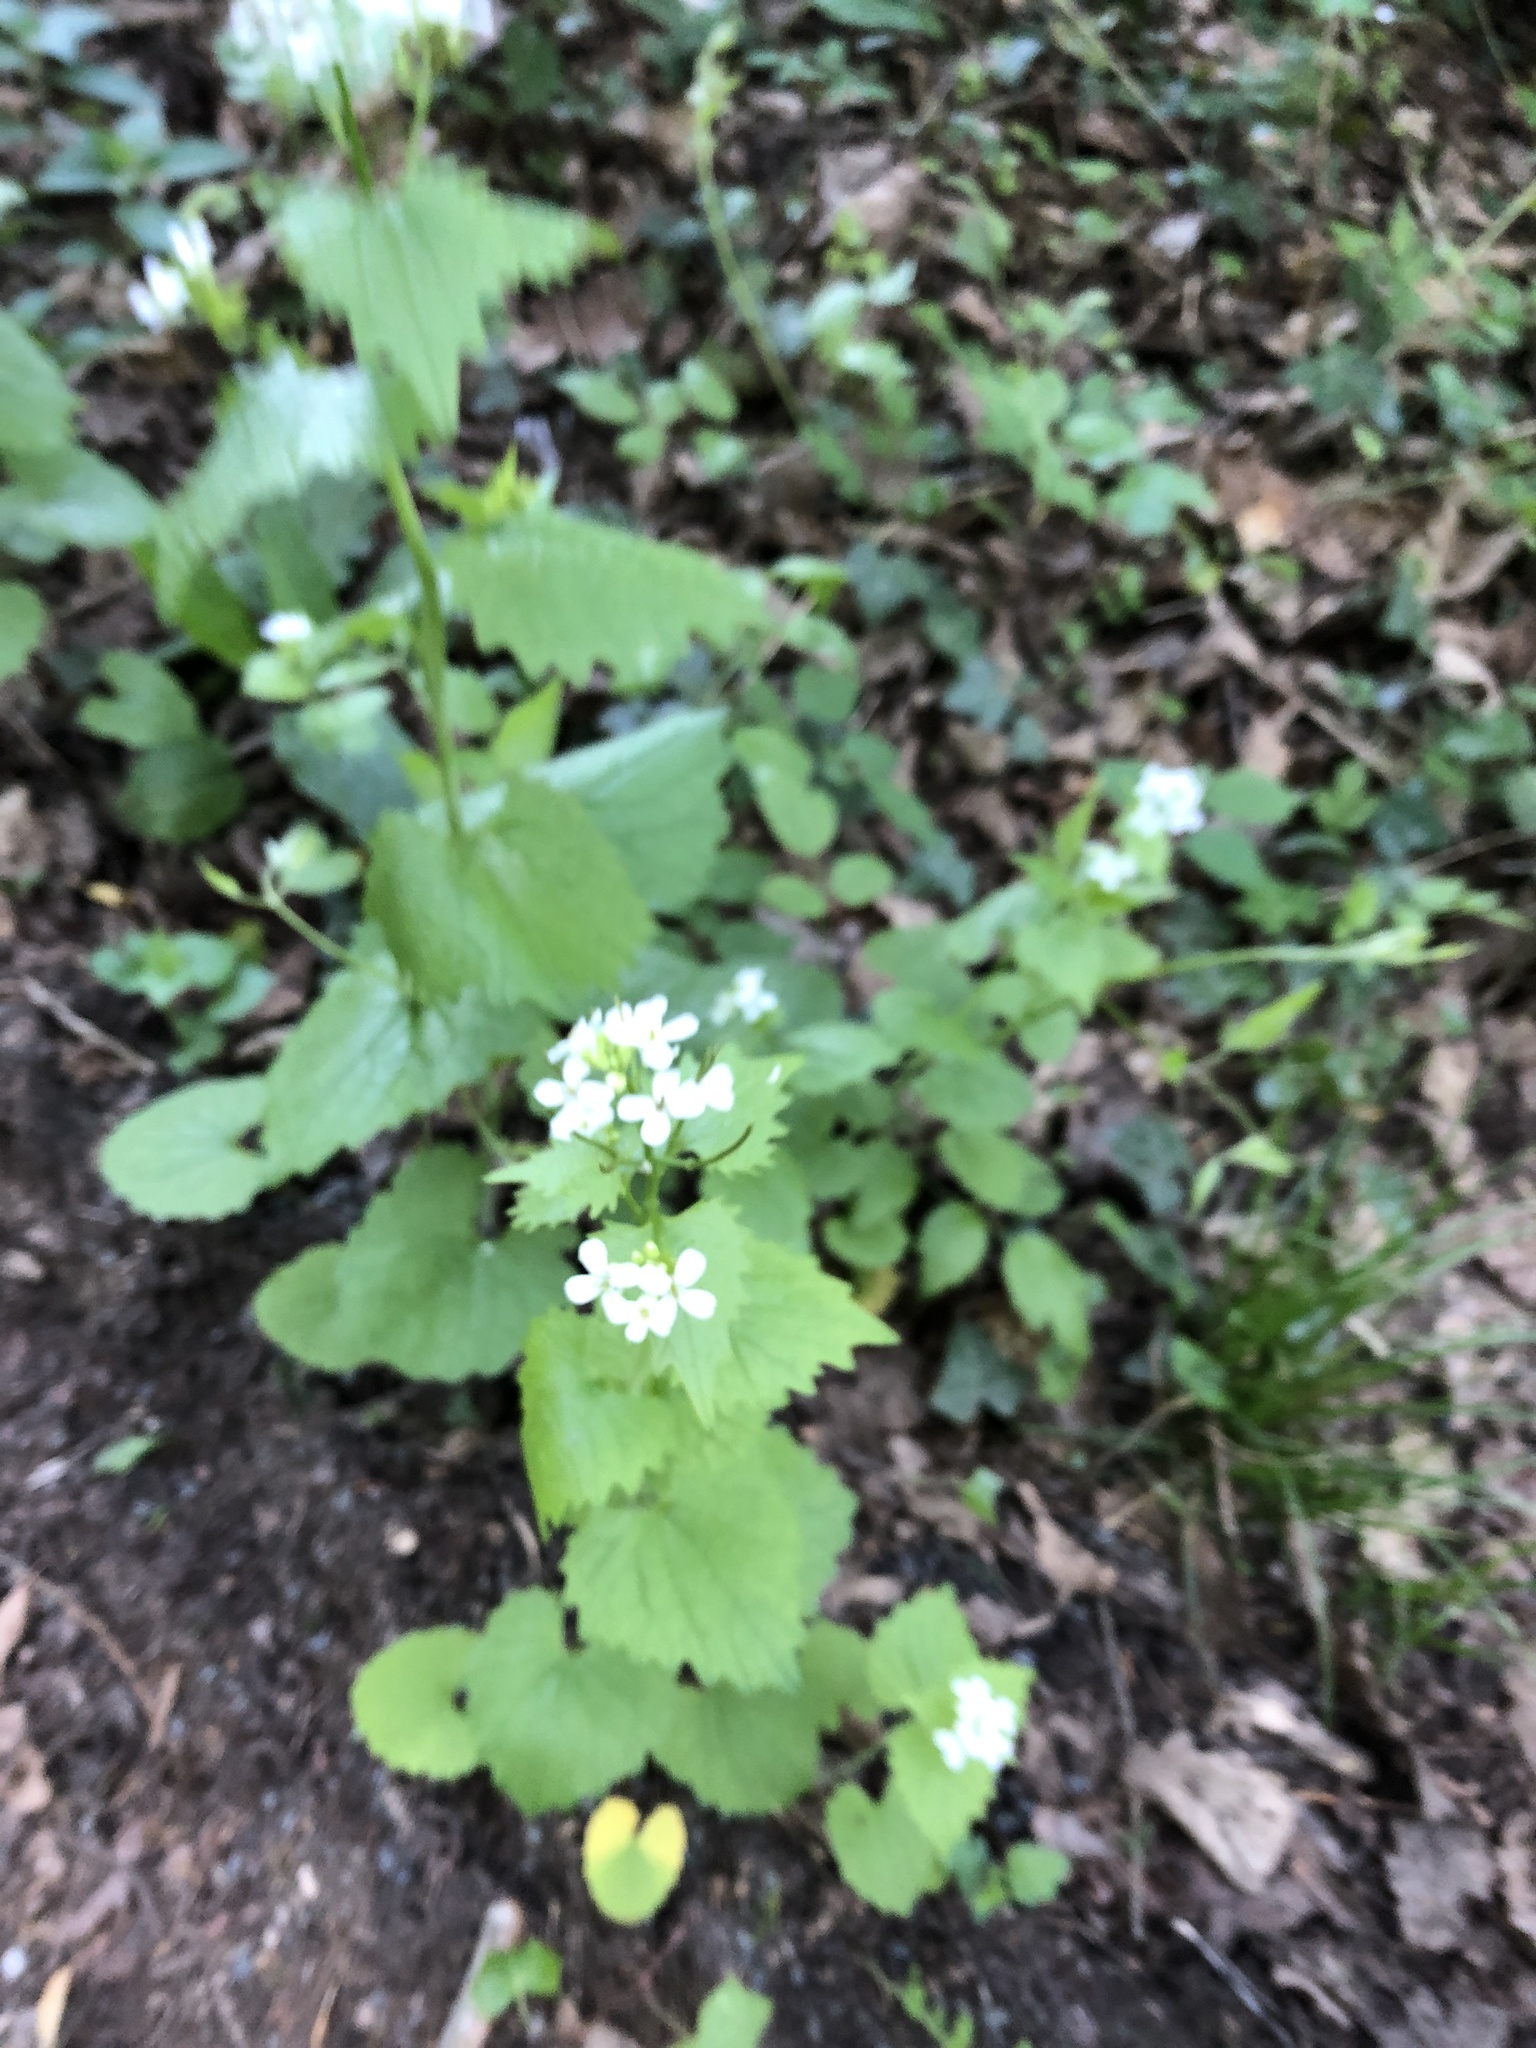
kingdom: Plantae
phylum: Tracheophyta
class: Magnoliopsida
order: Brassicales
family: Brassicaceae
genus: Alliaria
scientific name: Alliaria petiolata
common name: Garlic mustard
